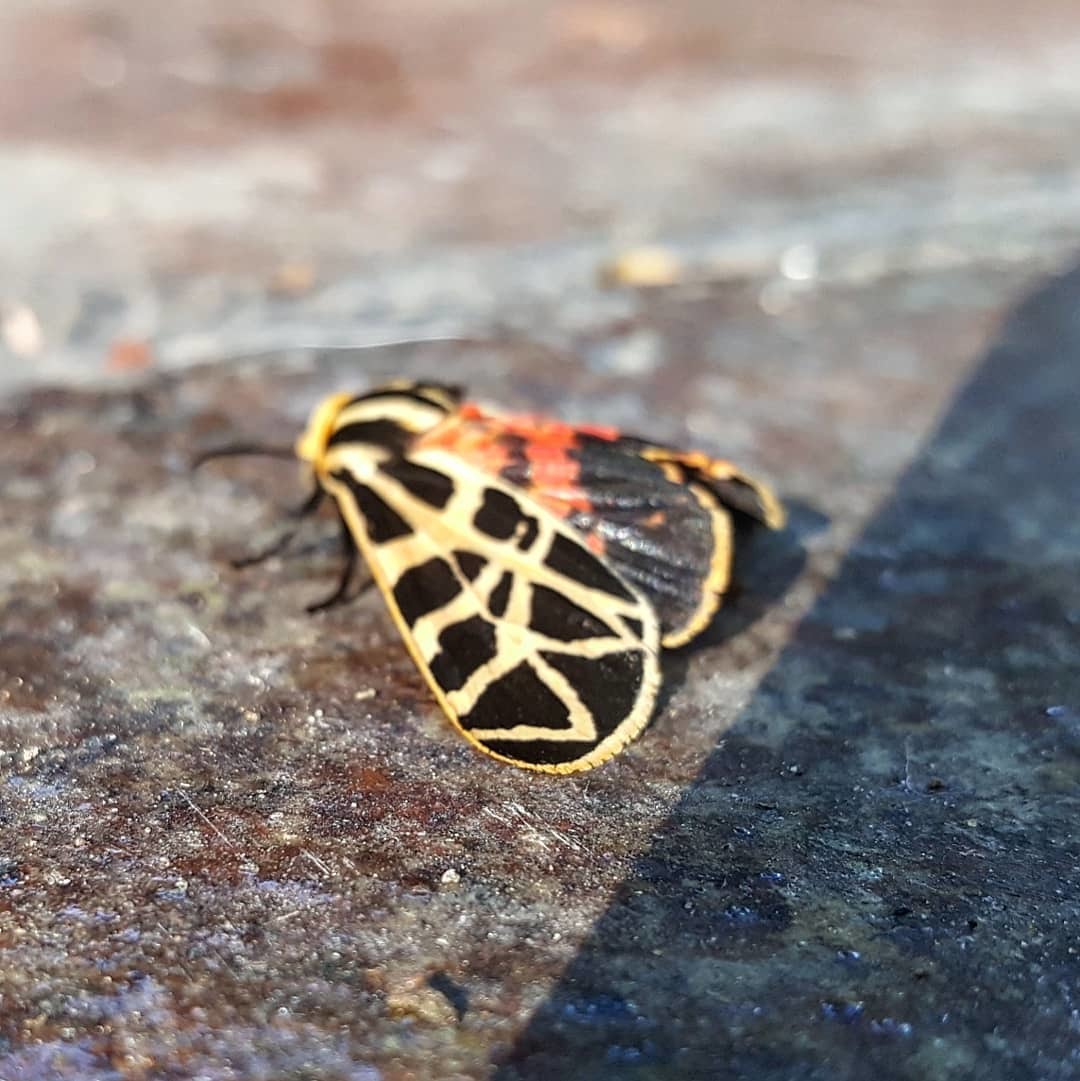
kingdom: Animalia
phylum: Arthropoda
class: Insecta
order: Lepidoptera
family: Erebidae
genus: Apantesis
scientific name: Apantesis
